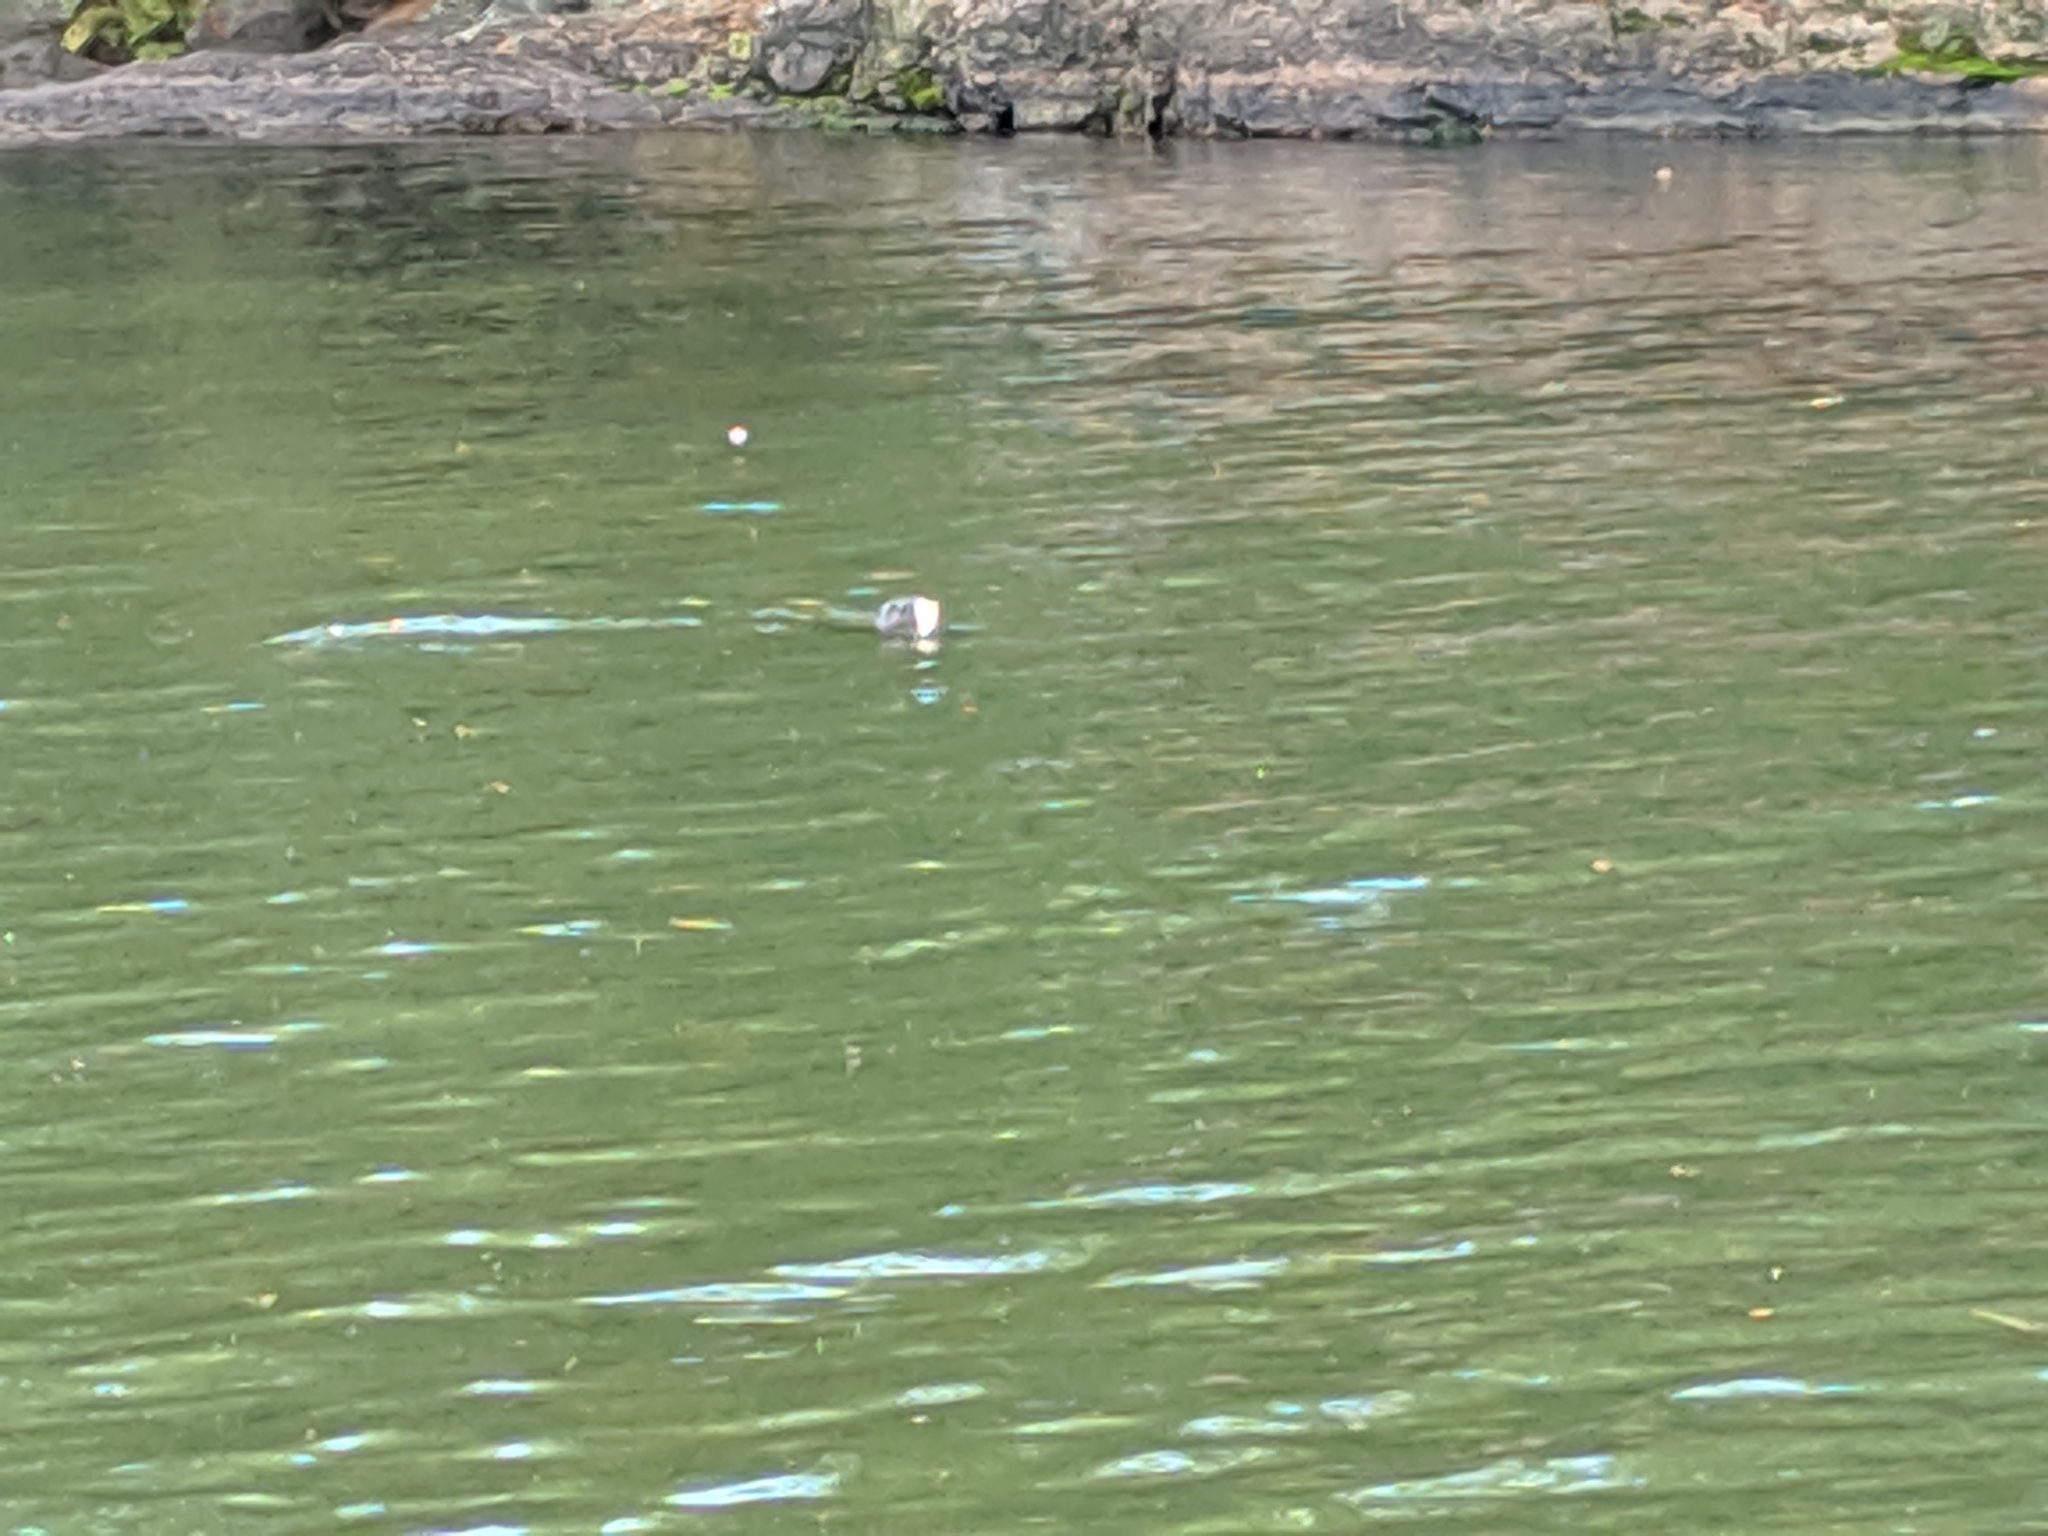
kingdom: Animalia
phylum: Chordata
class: Mammalia
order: Carnivora
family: Mustelidae
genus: Lontra
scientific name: Lontra canadensis
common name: North american river otter
